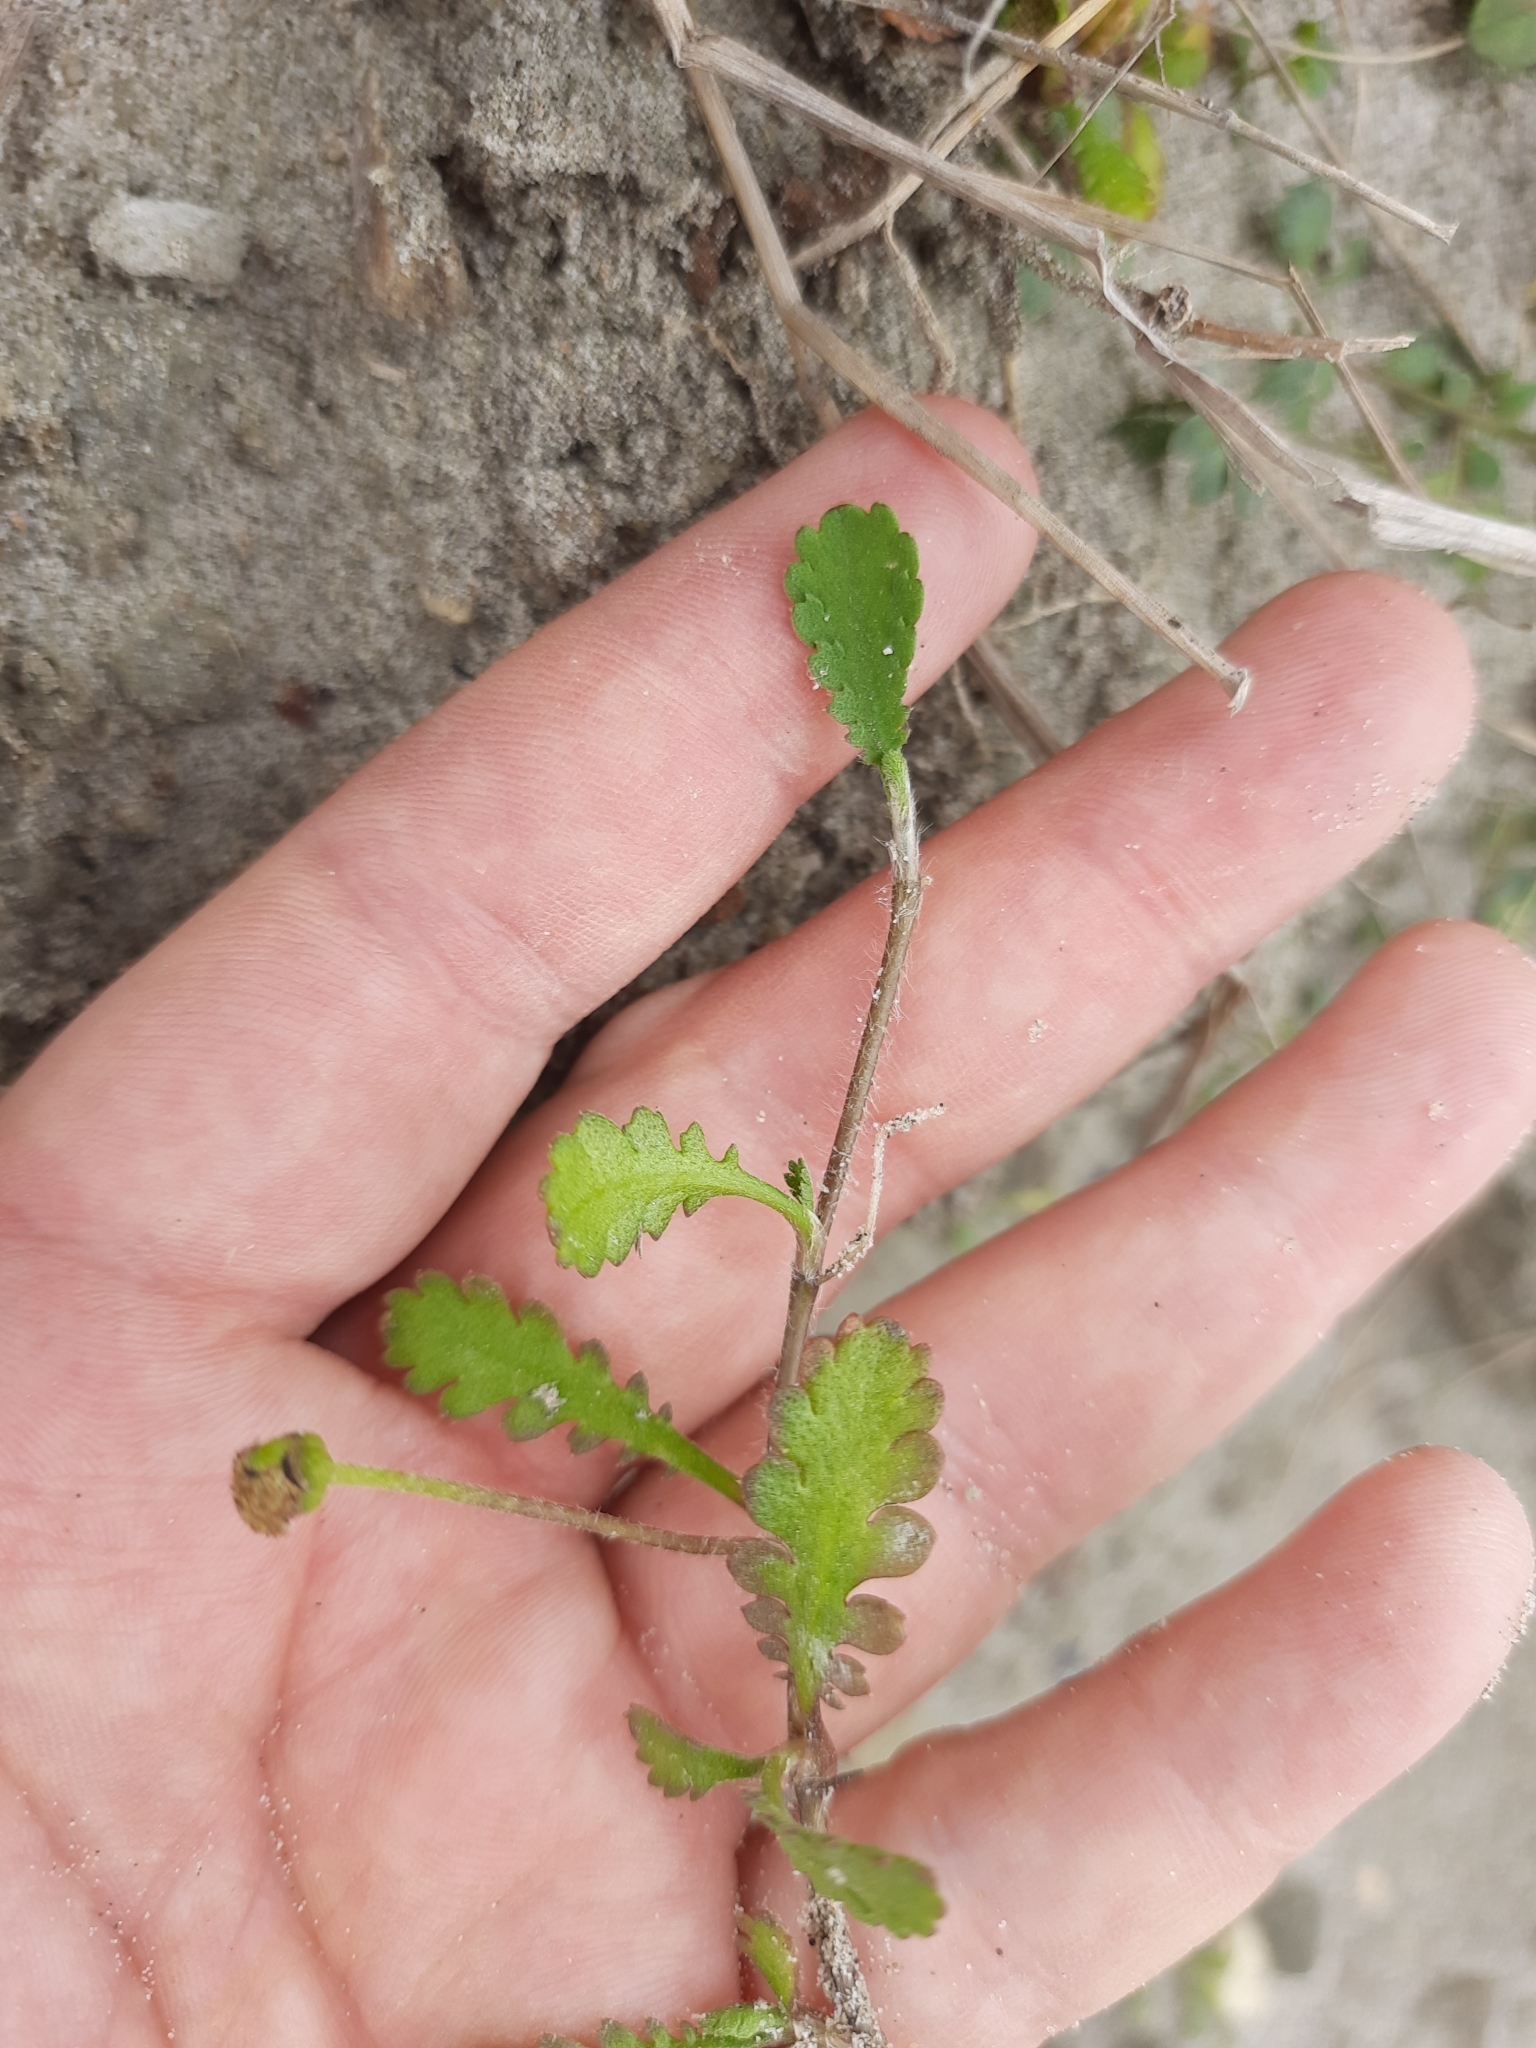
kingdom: Plantae
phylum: Tracheophyta
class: Magnoliopsida
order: Asterales
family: Asteraceae
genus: Leptinella
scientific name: Leptinella dioica
